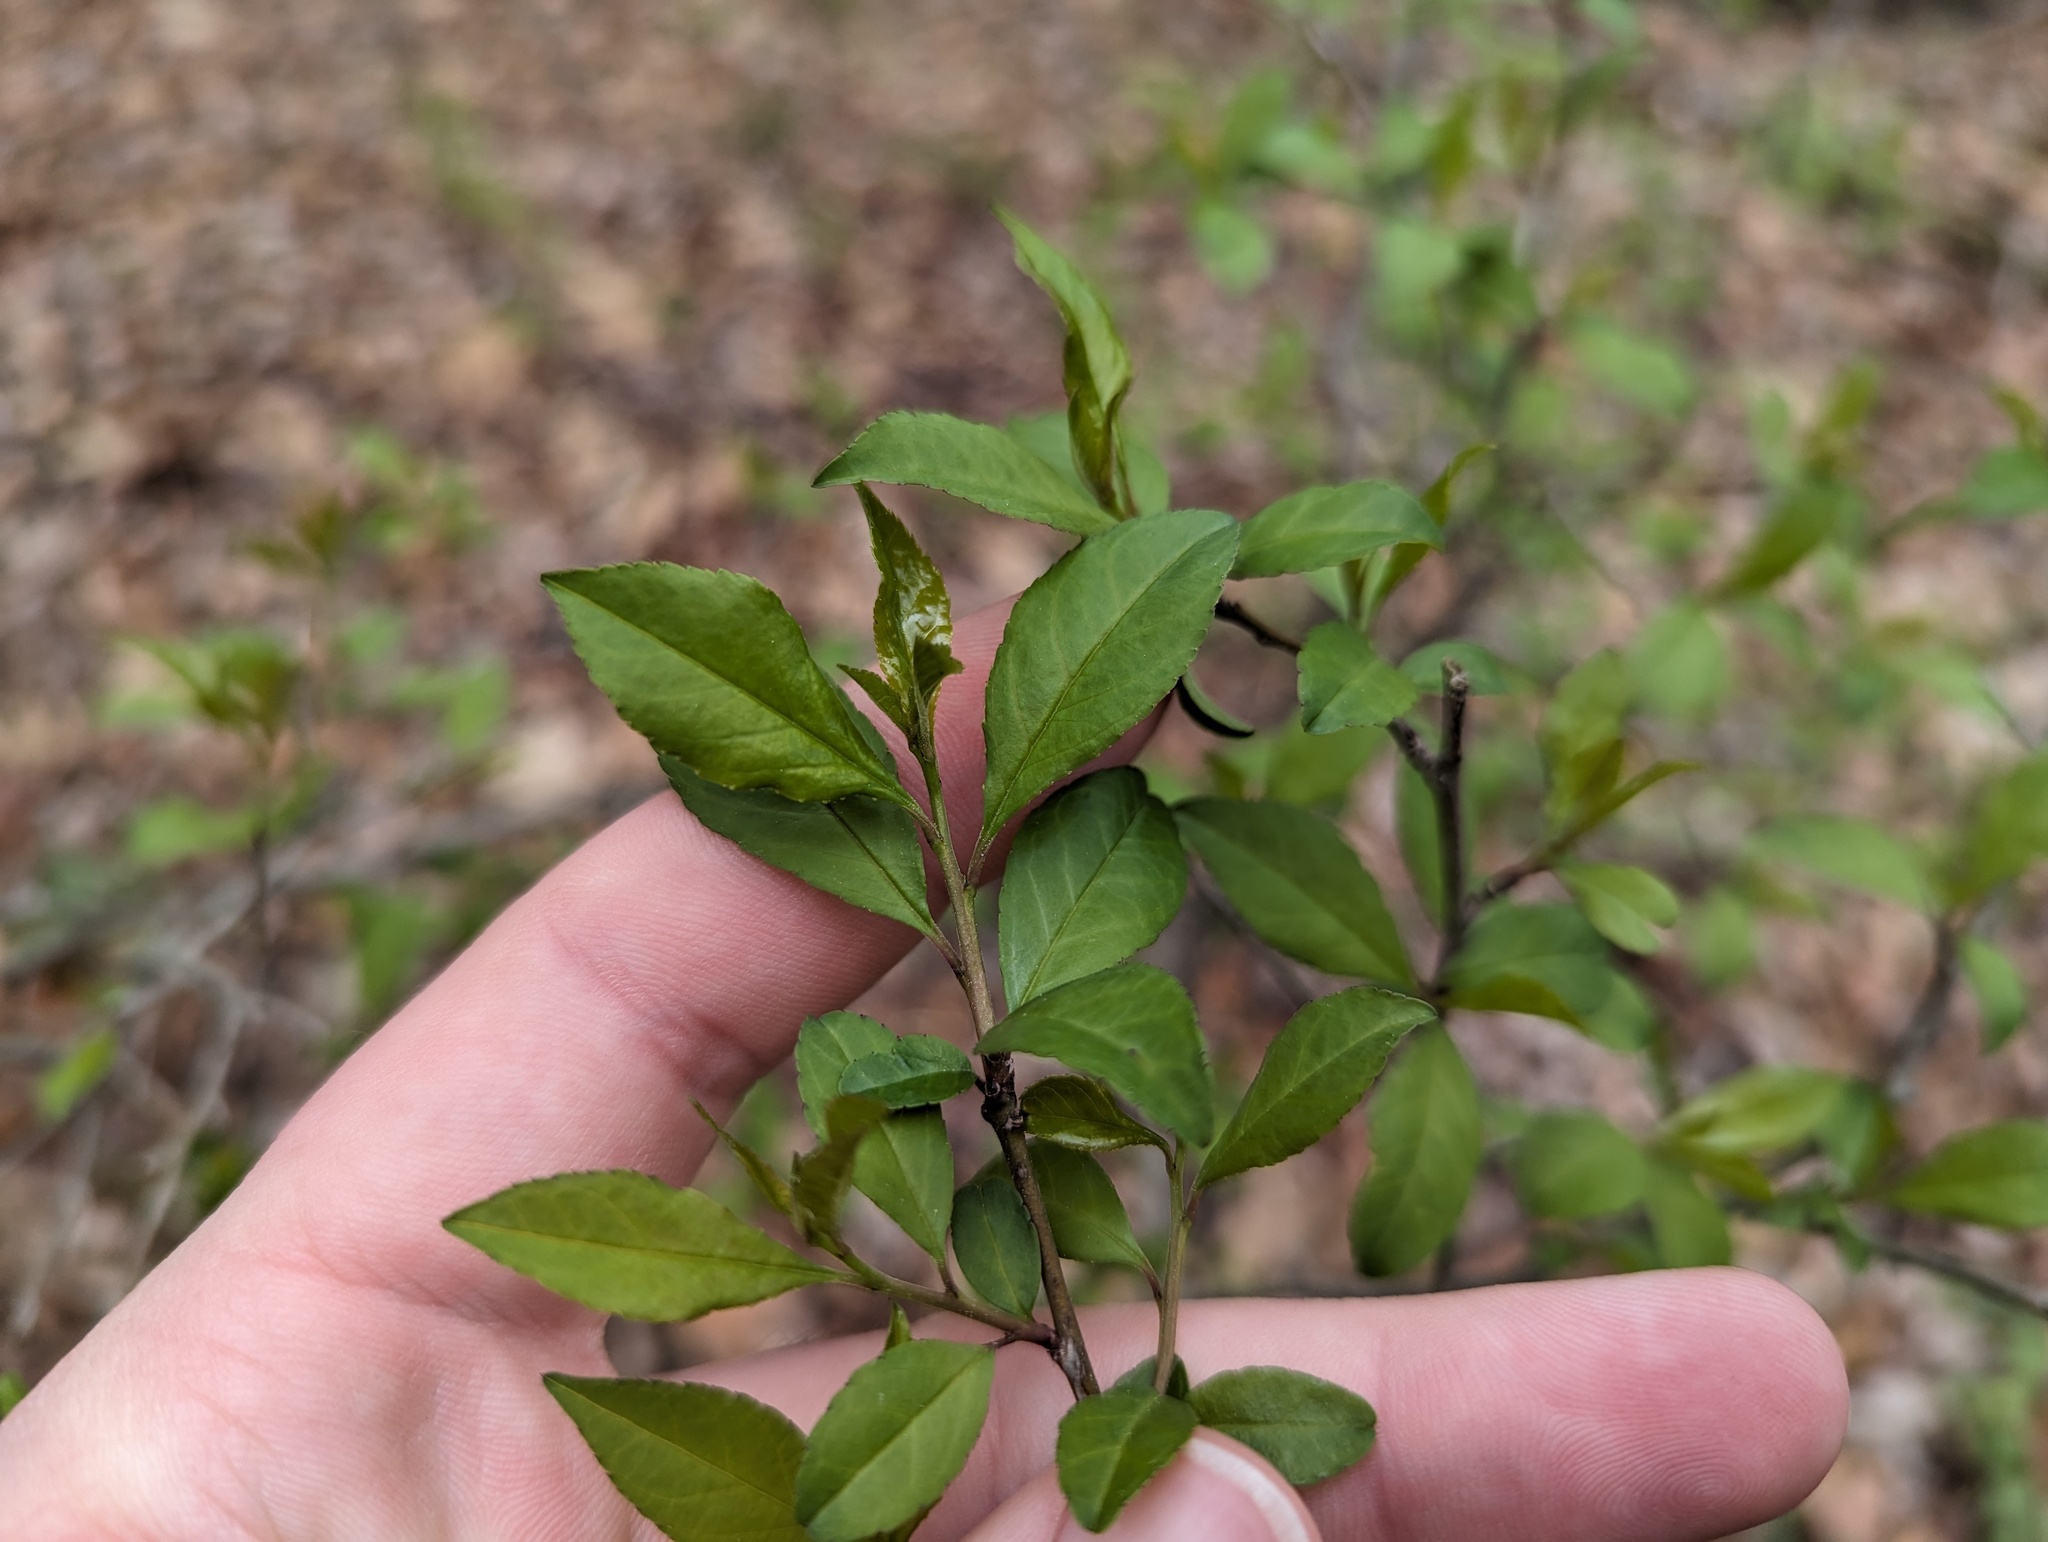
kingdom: Plantae
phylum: Tracheophyta
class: Magnoliopsida
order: Aquifoliales
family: Aquifoliaceae
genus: Ilex
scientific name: Ilex decidua
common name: Possum-haw
